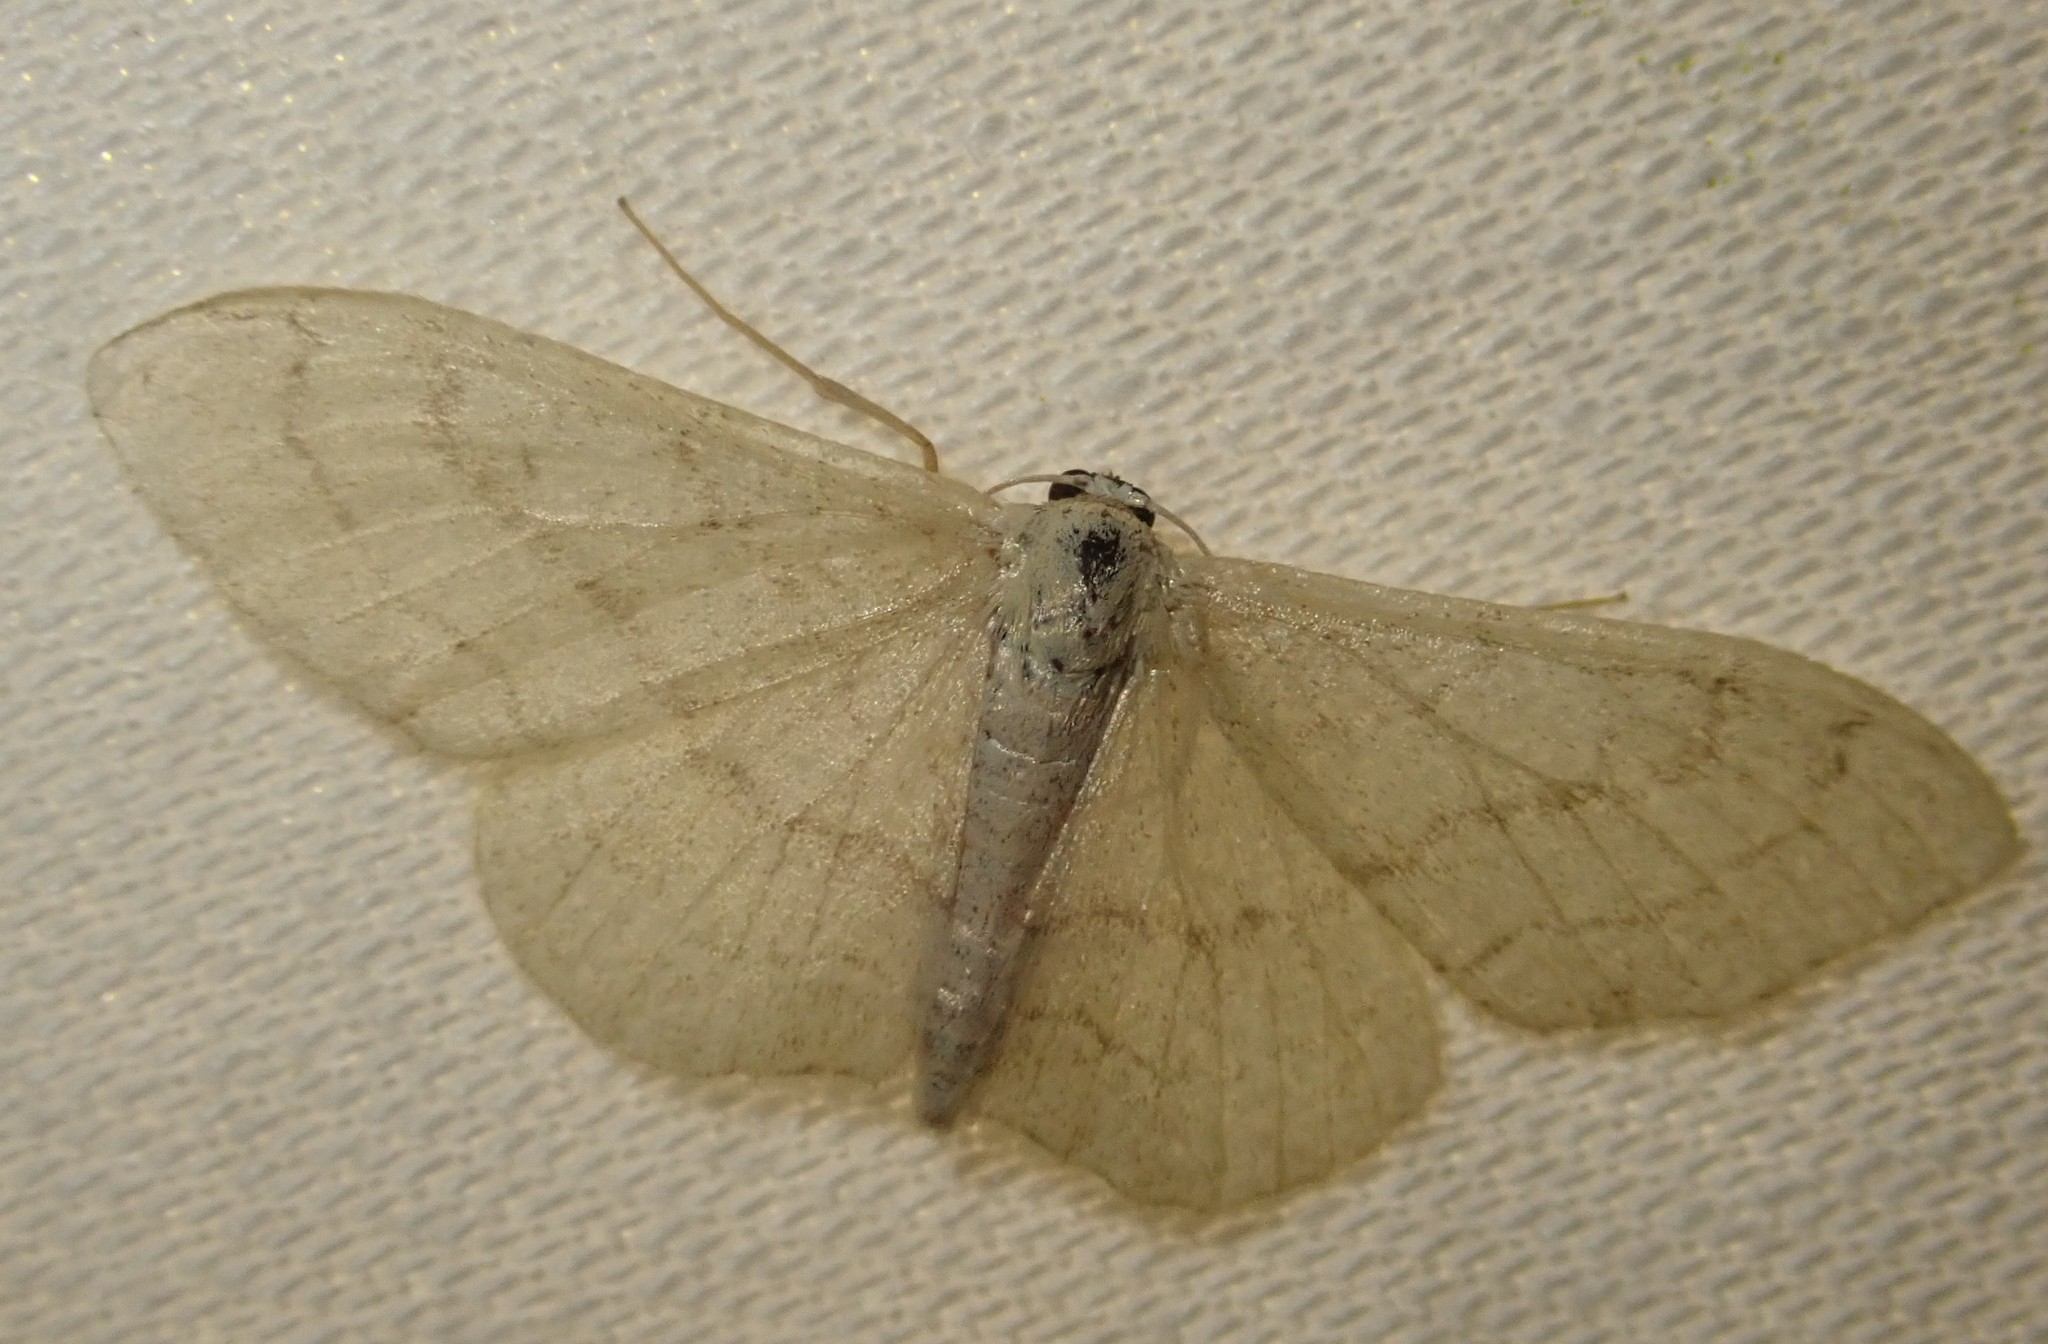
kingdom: Animalia
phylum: Arthropoda
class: Insecta
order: Lepidoptera
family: Geometridae
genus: Idaea
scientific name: Idaea aversata
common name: Riband wave
